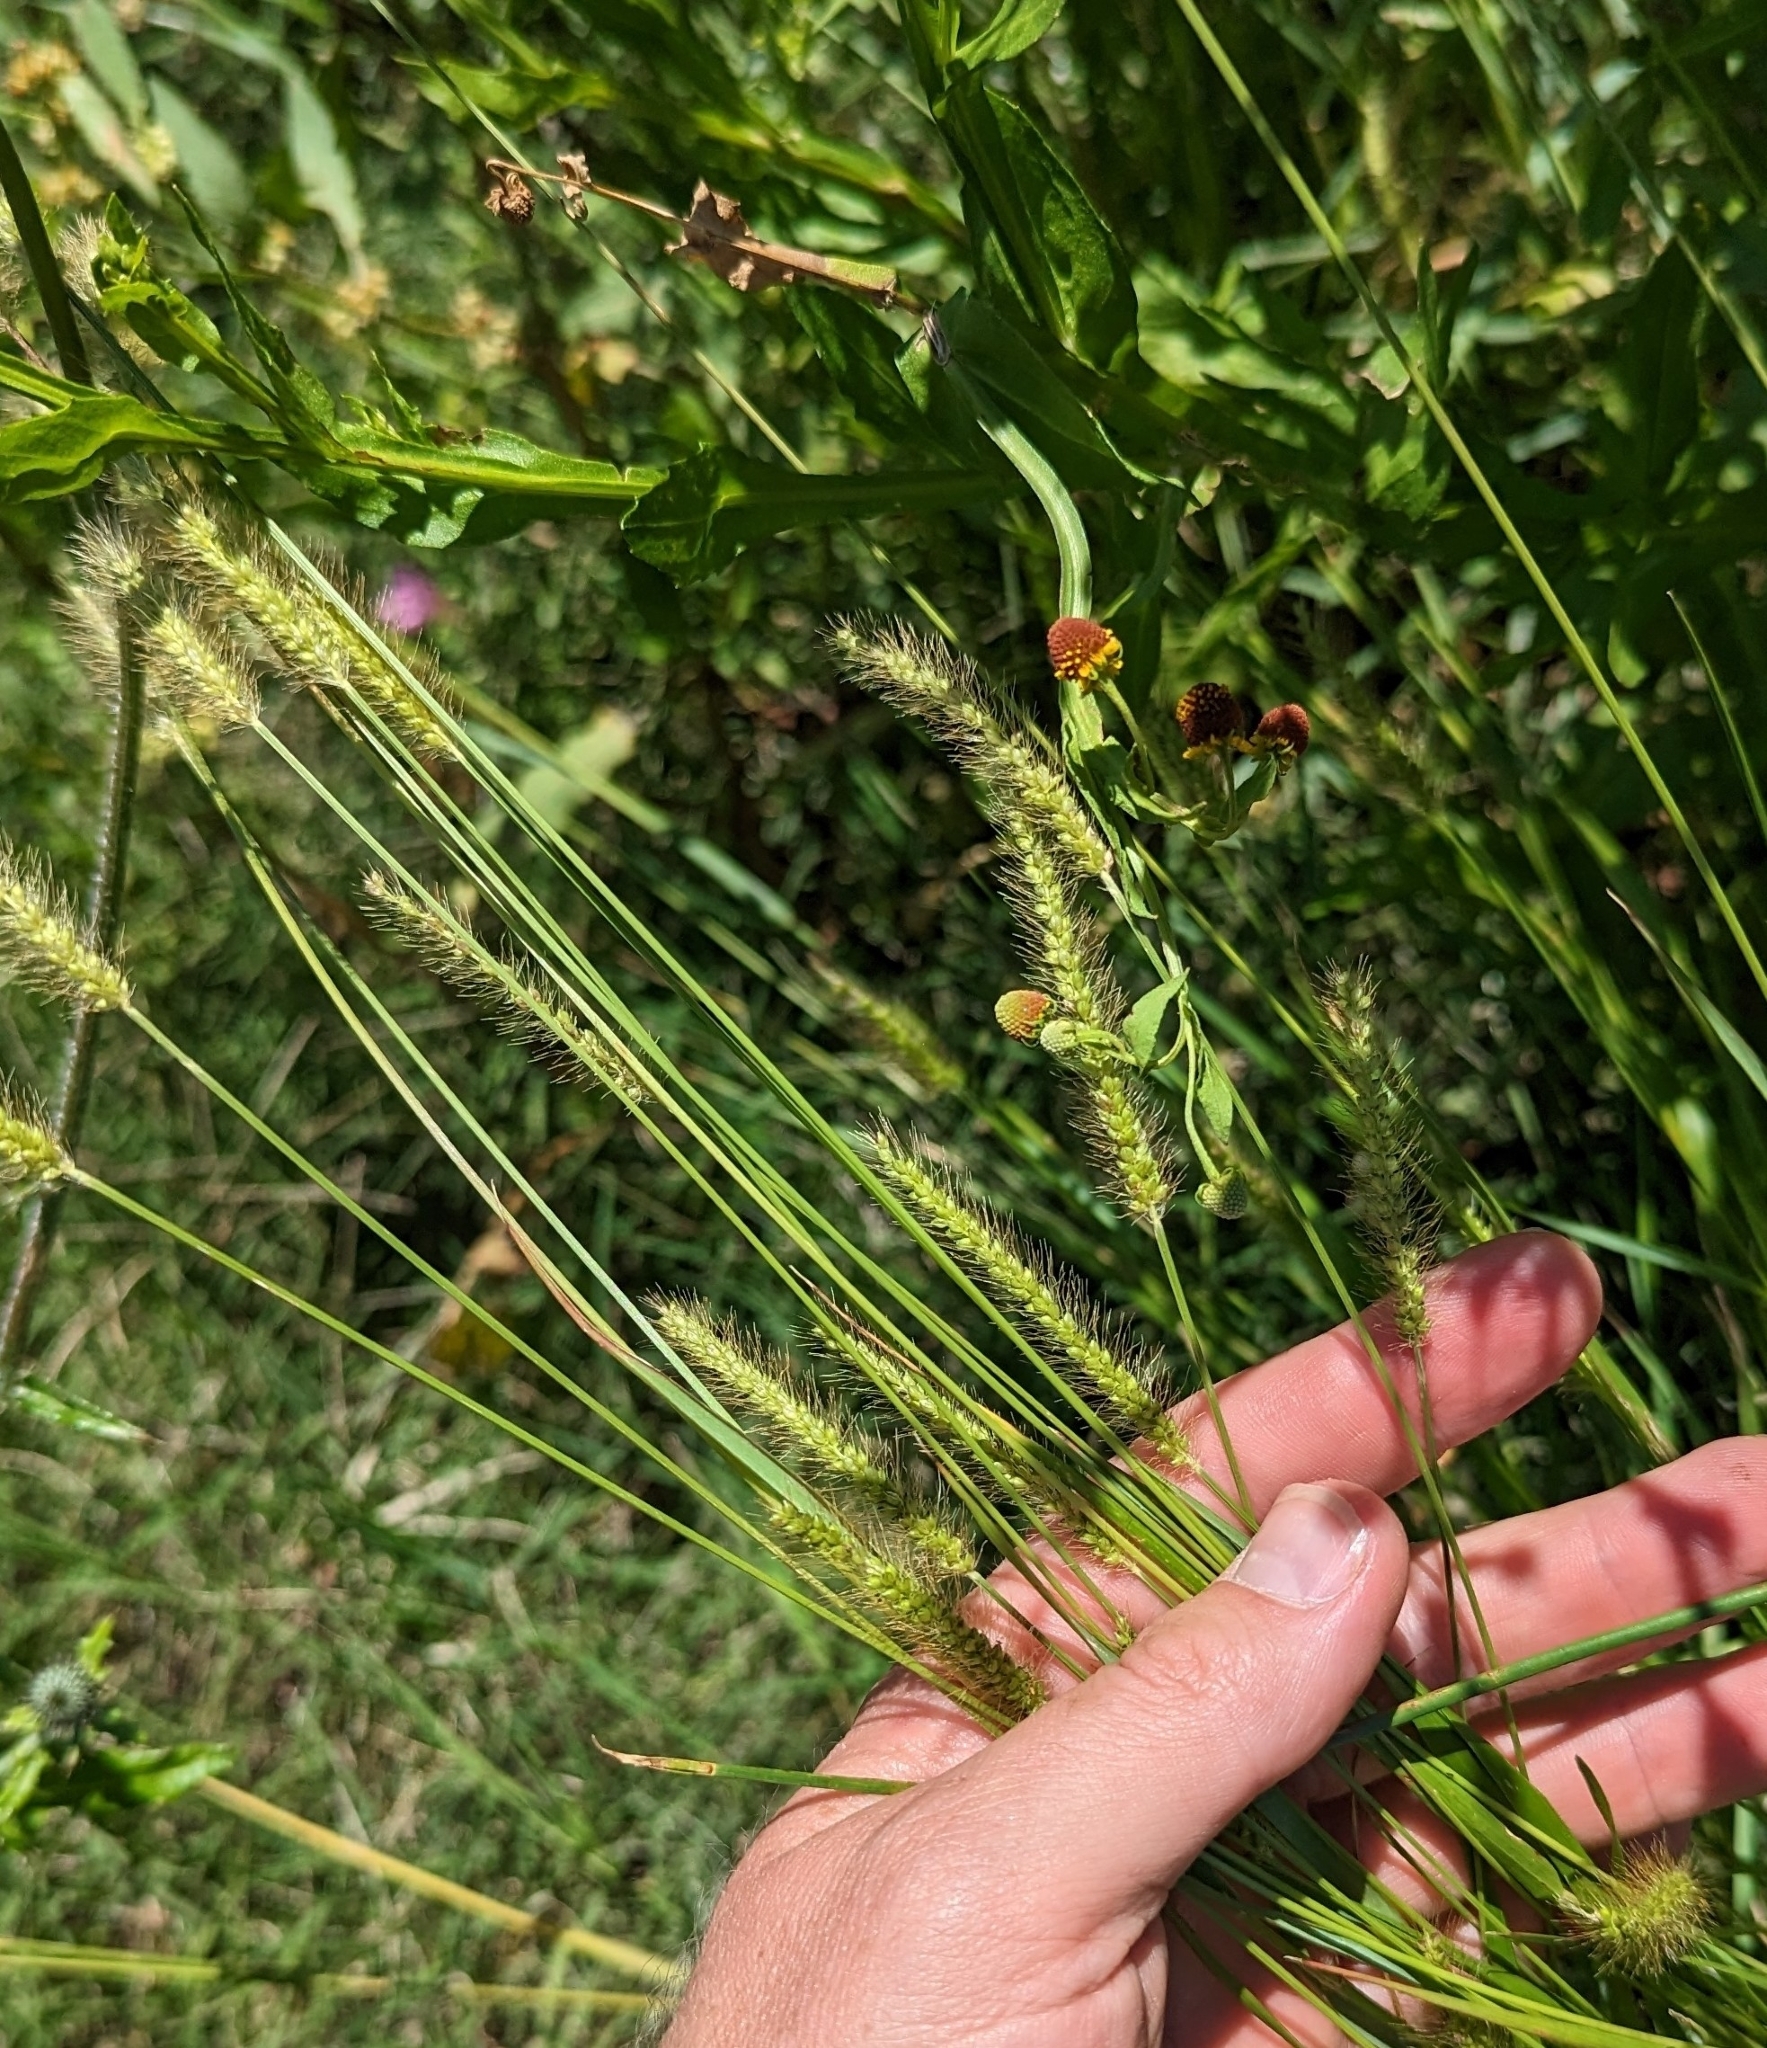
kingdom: Plantae
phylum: Tracheophyta
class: Liliopsida
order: Poales
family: Poaceae
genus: Setaria
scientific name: Setaria parviflora
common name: Knotroot bristle-grass
